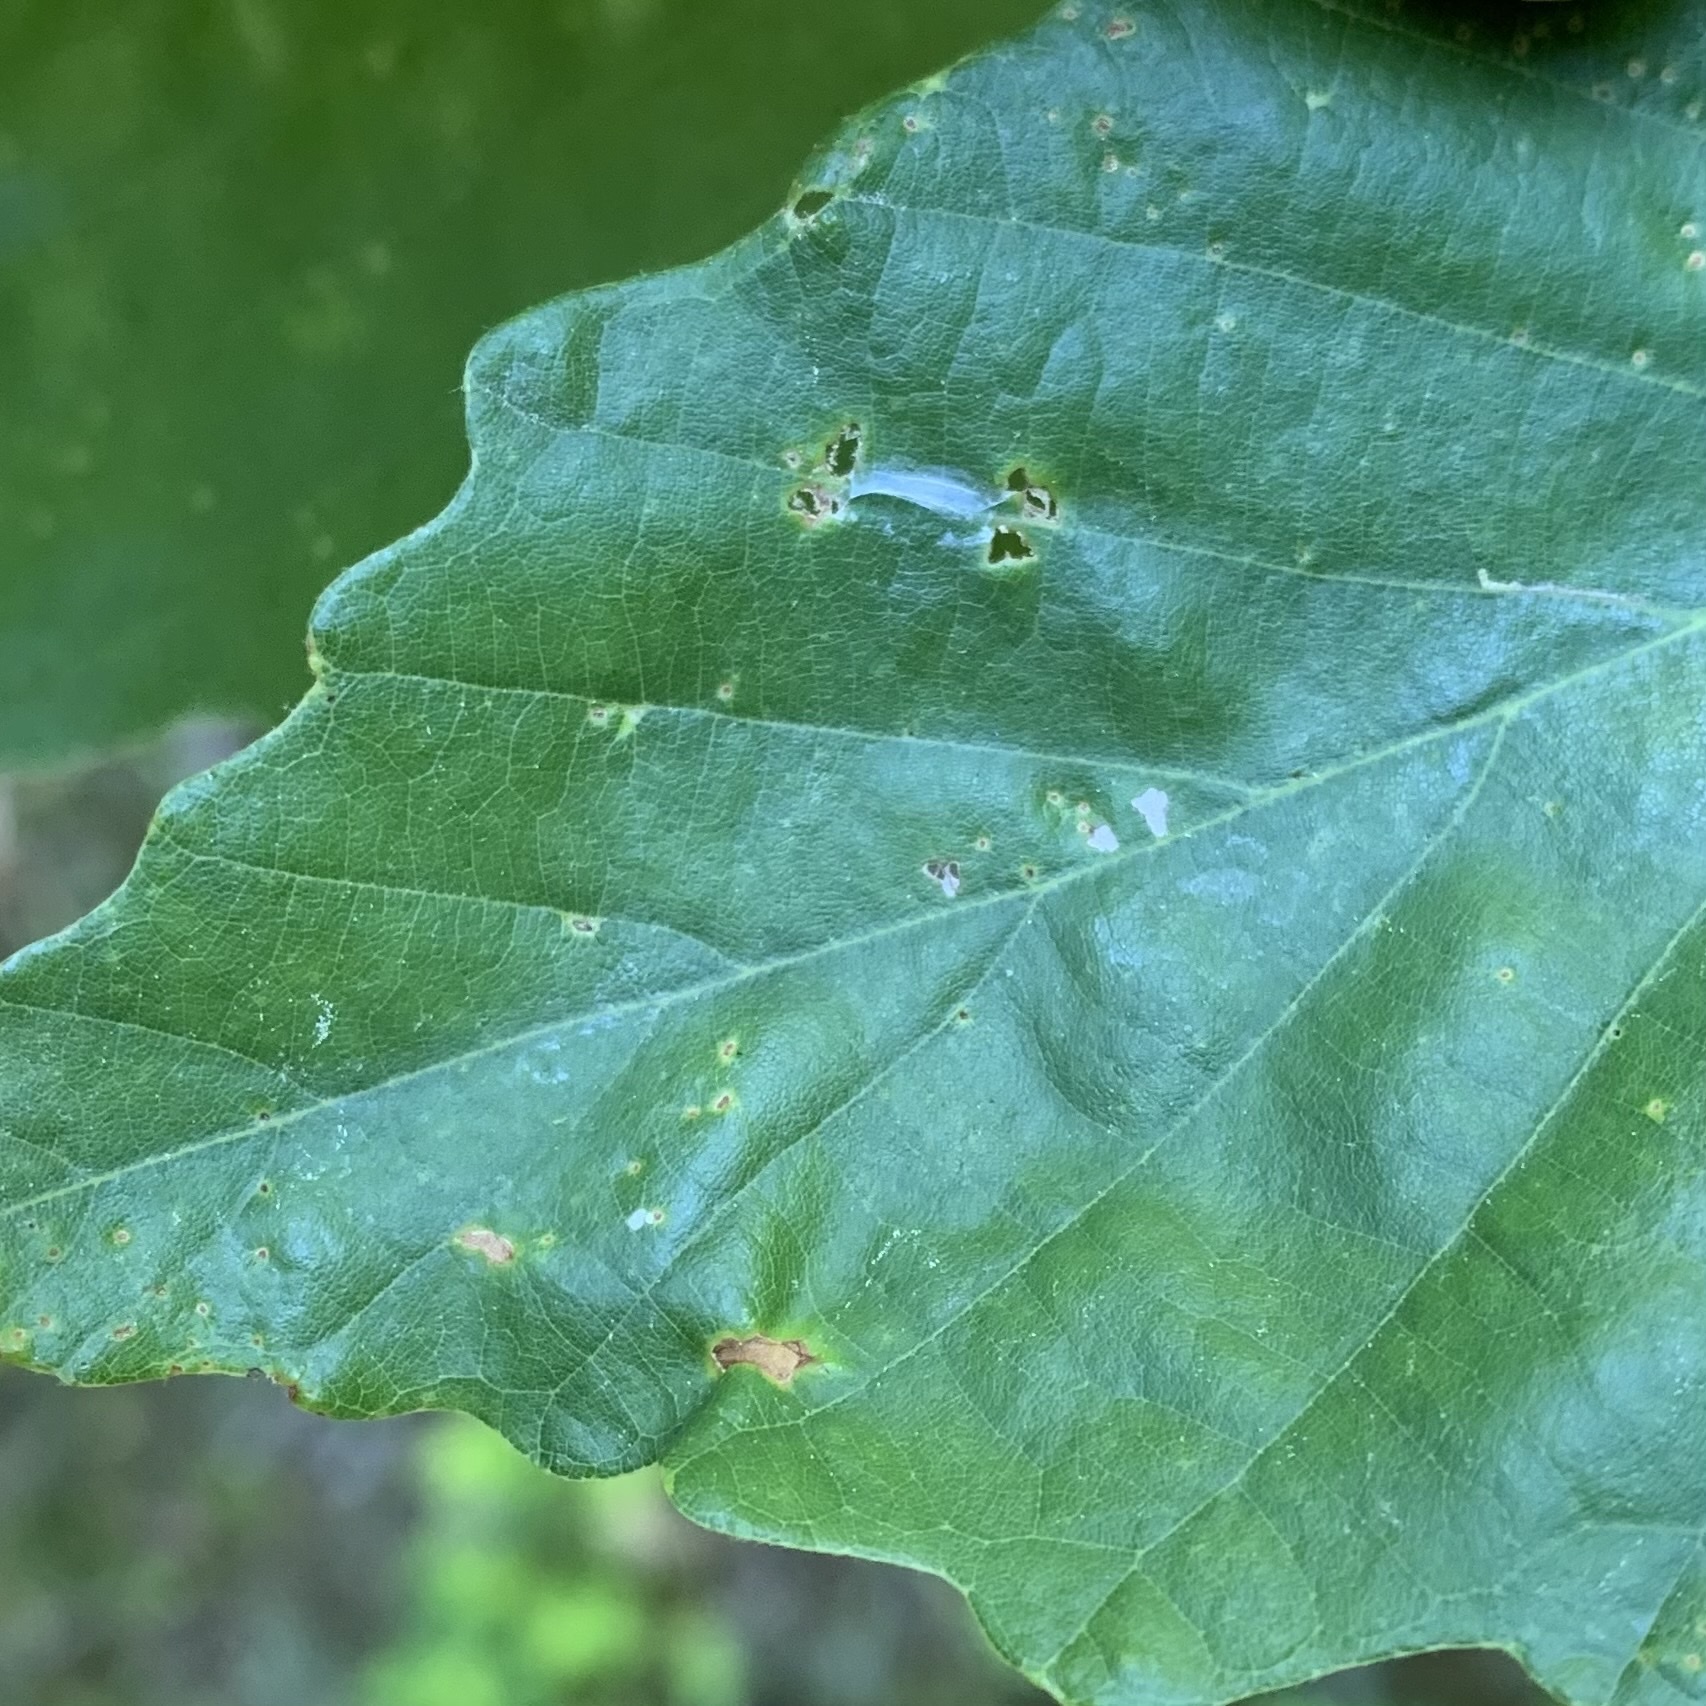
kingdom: Animalia
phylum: Arthropoda
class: Insecta
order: Lepidoptera
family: Peleopodidae
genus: Machimia
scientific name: Machimia tentoriferella
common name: Gold-striped leaftier moth
